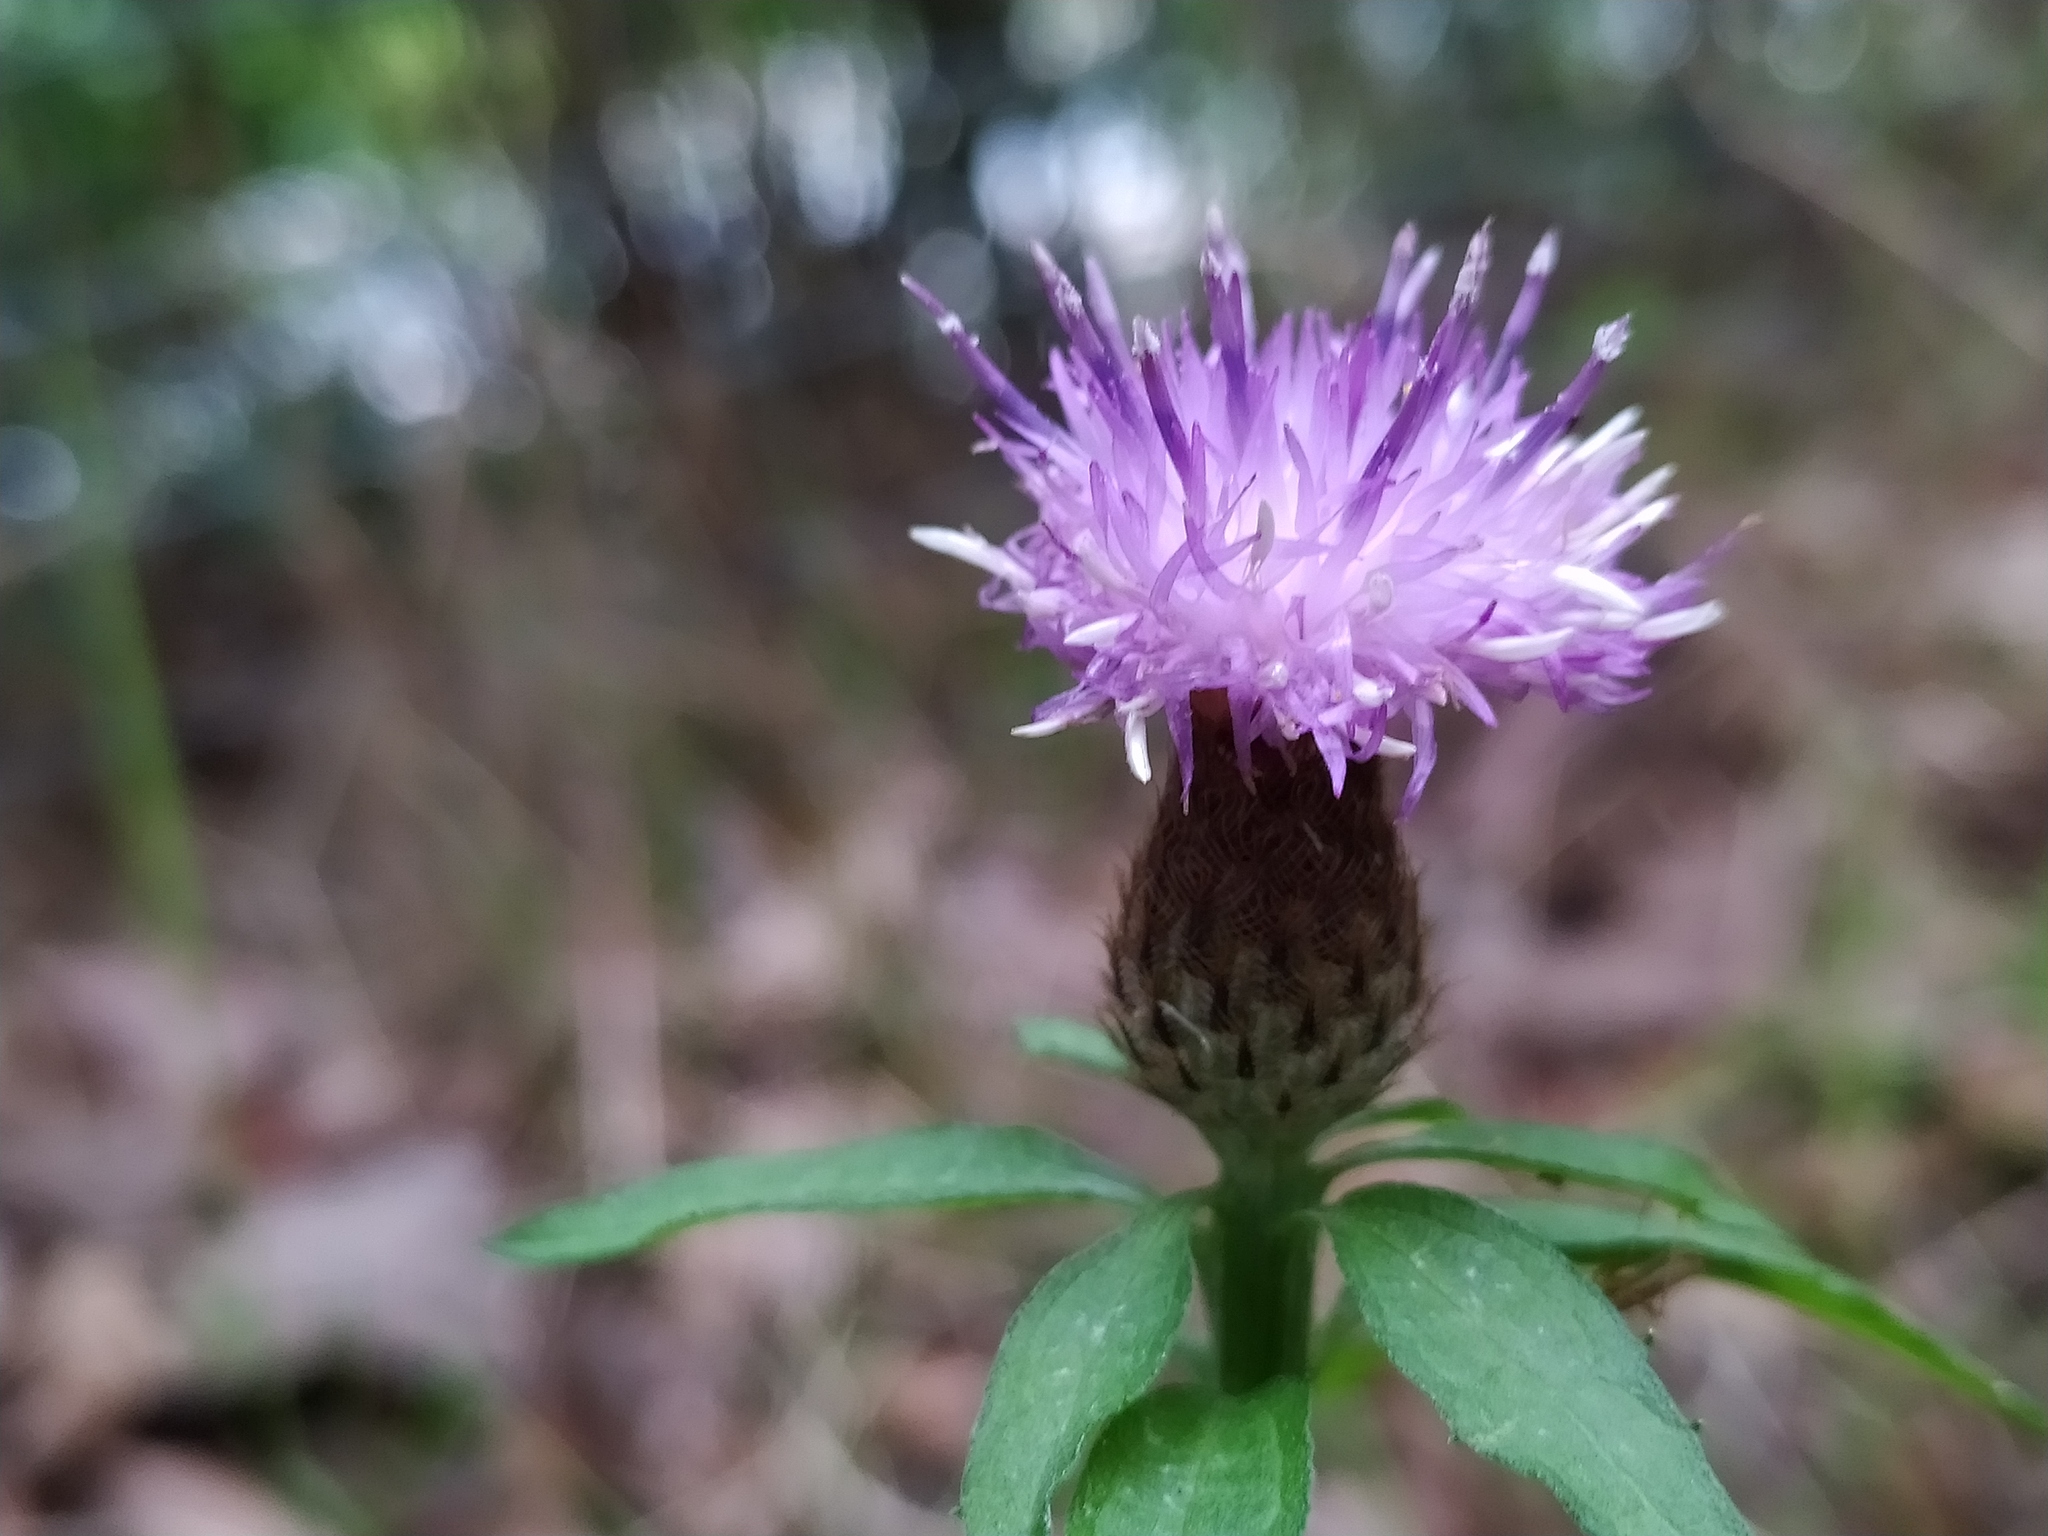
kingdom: Plantae
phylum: Tracheophyta
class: Magnoliopsida
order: Asterales
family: Asteraceae
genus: Centaurea
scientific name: Centaurea nigra
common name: Lesser knapweed
